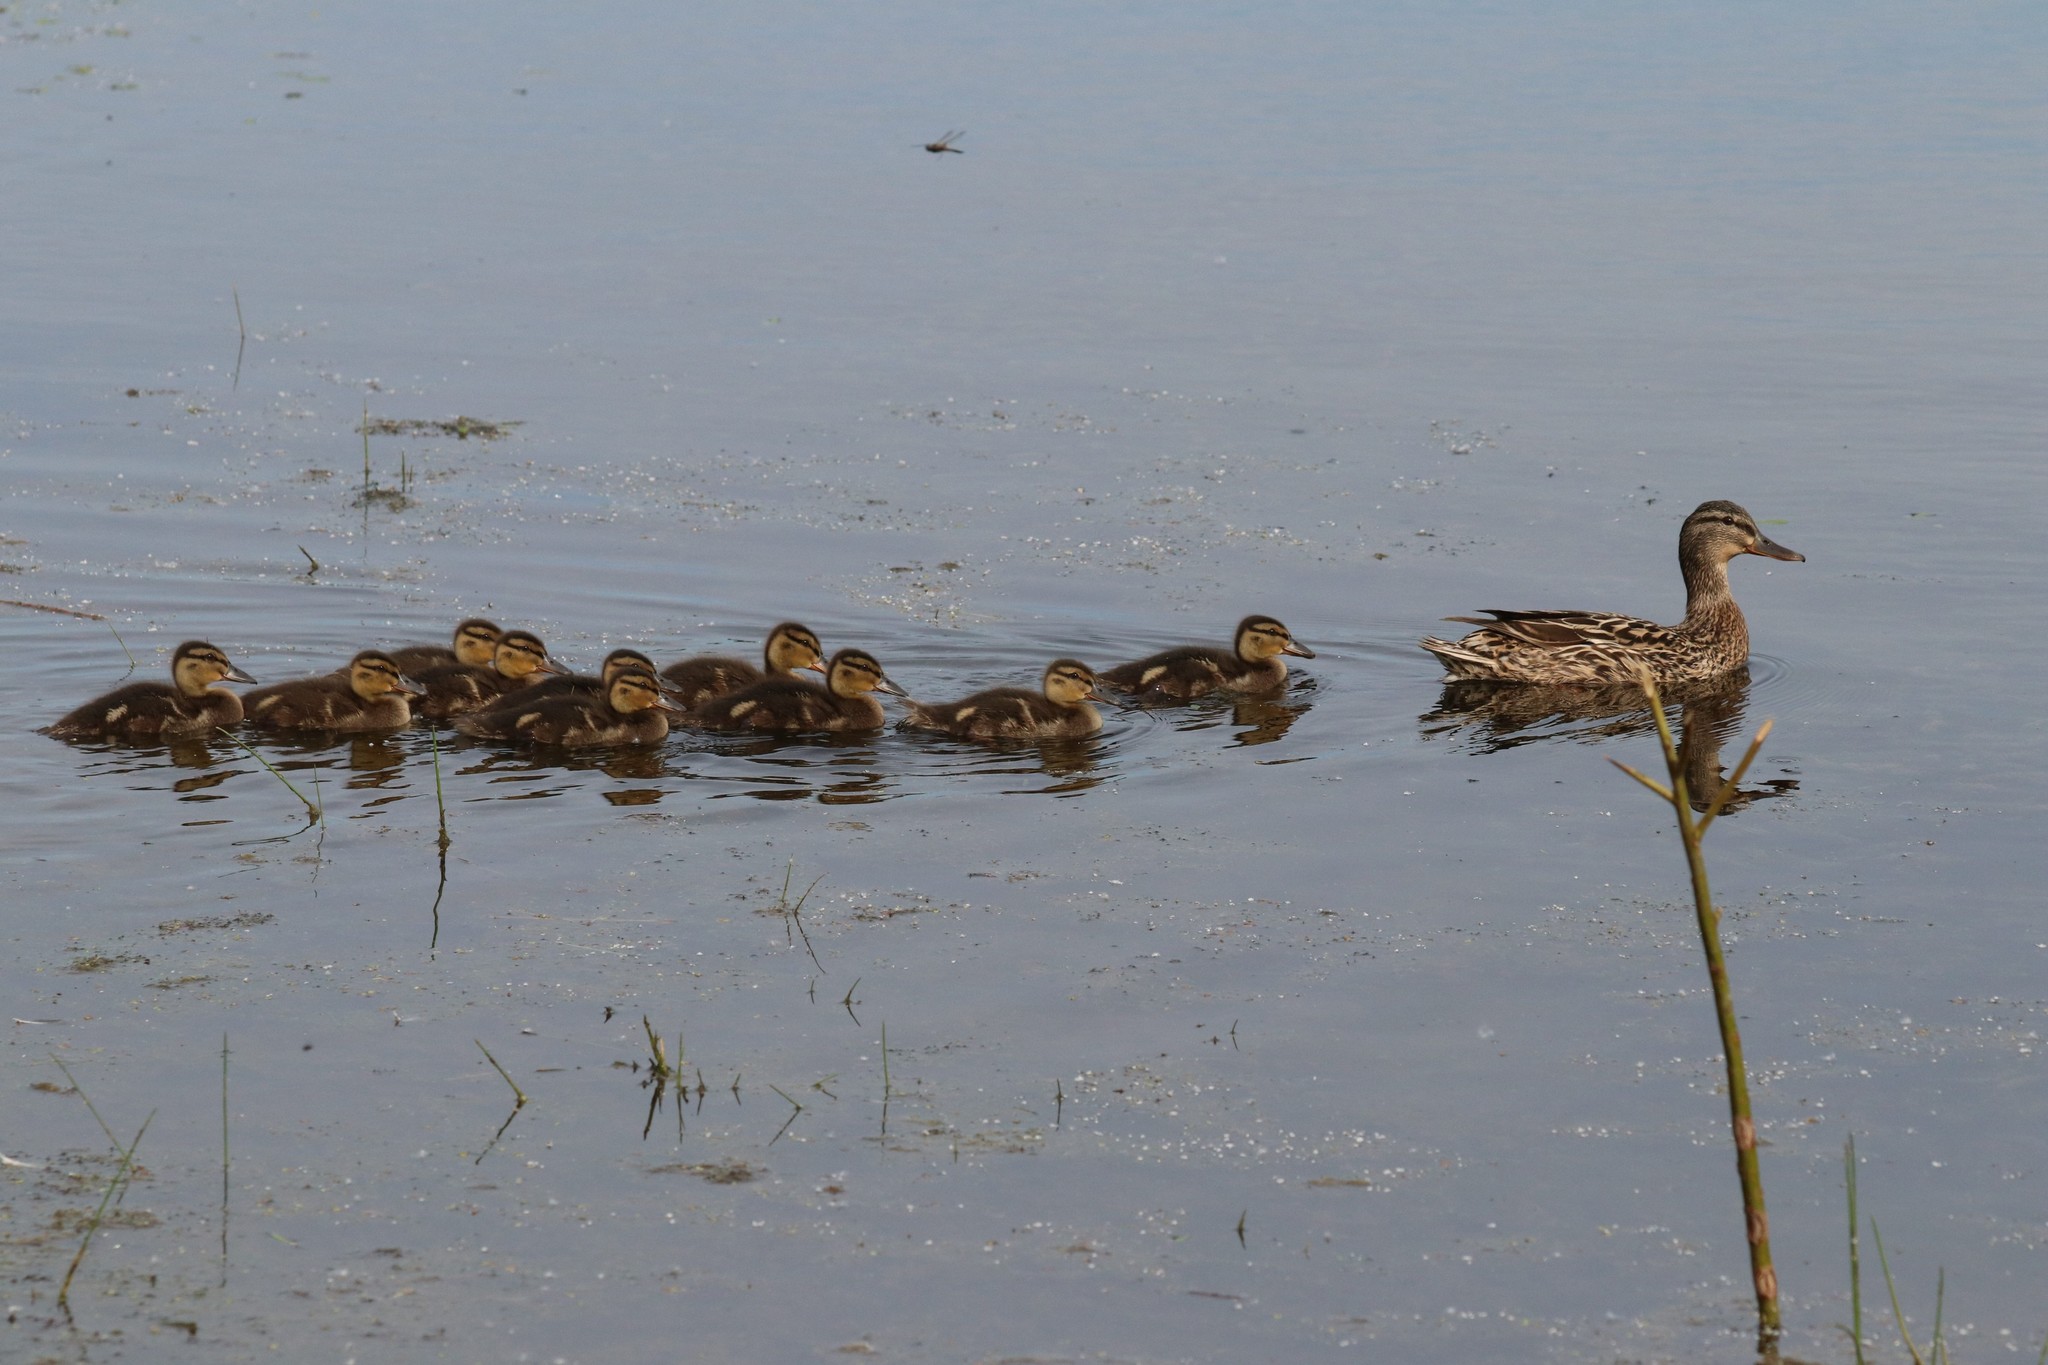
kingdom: Animalia
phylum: Chordata
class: Aves
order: Anseriformes
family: Anatidae
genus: Anas
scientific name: Anas platyrhynchos
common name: Mallard
